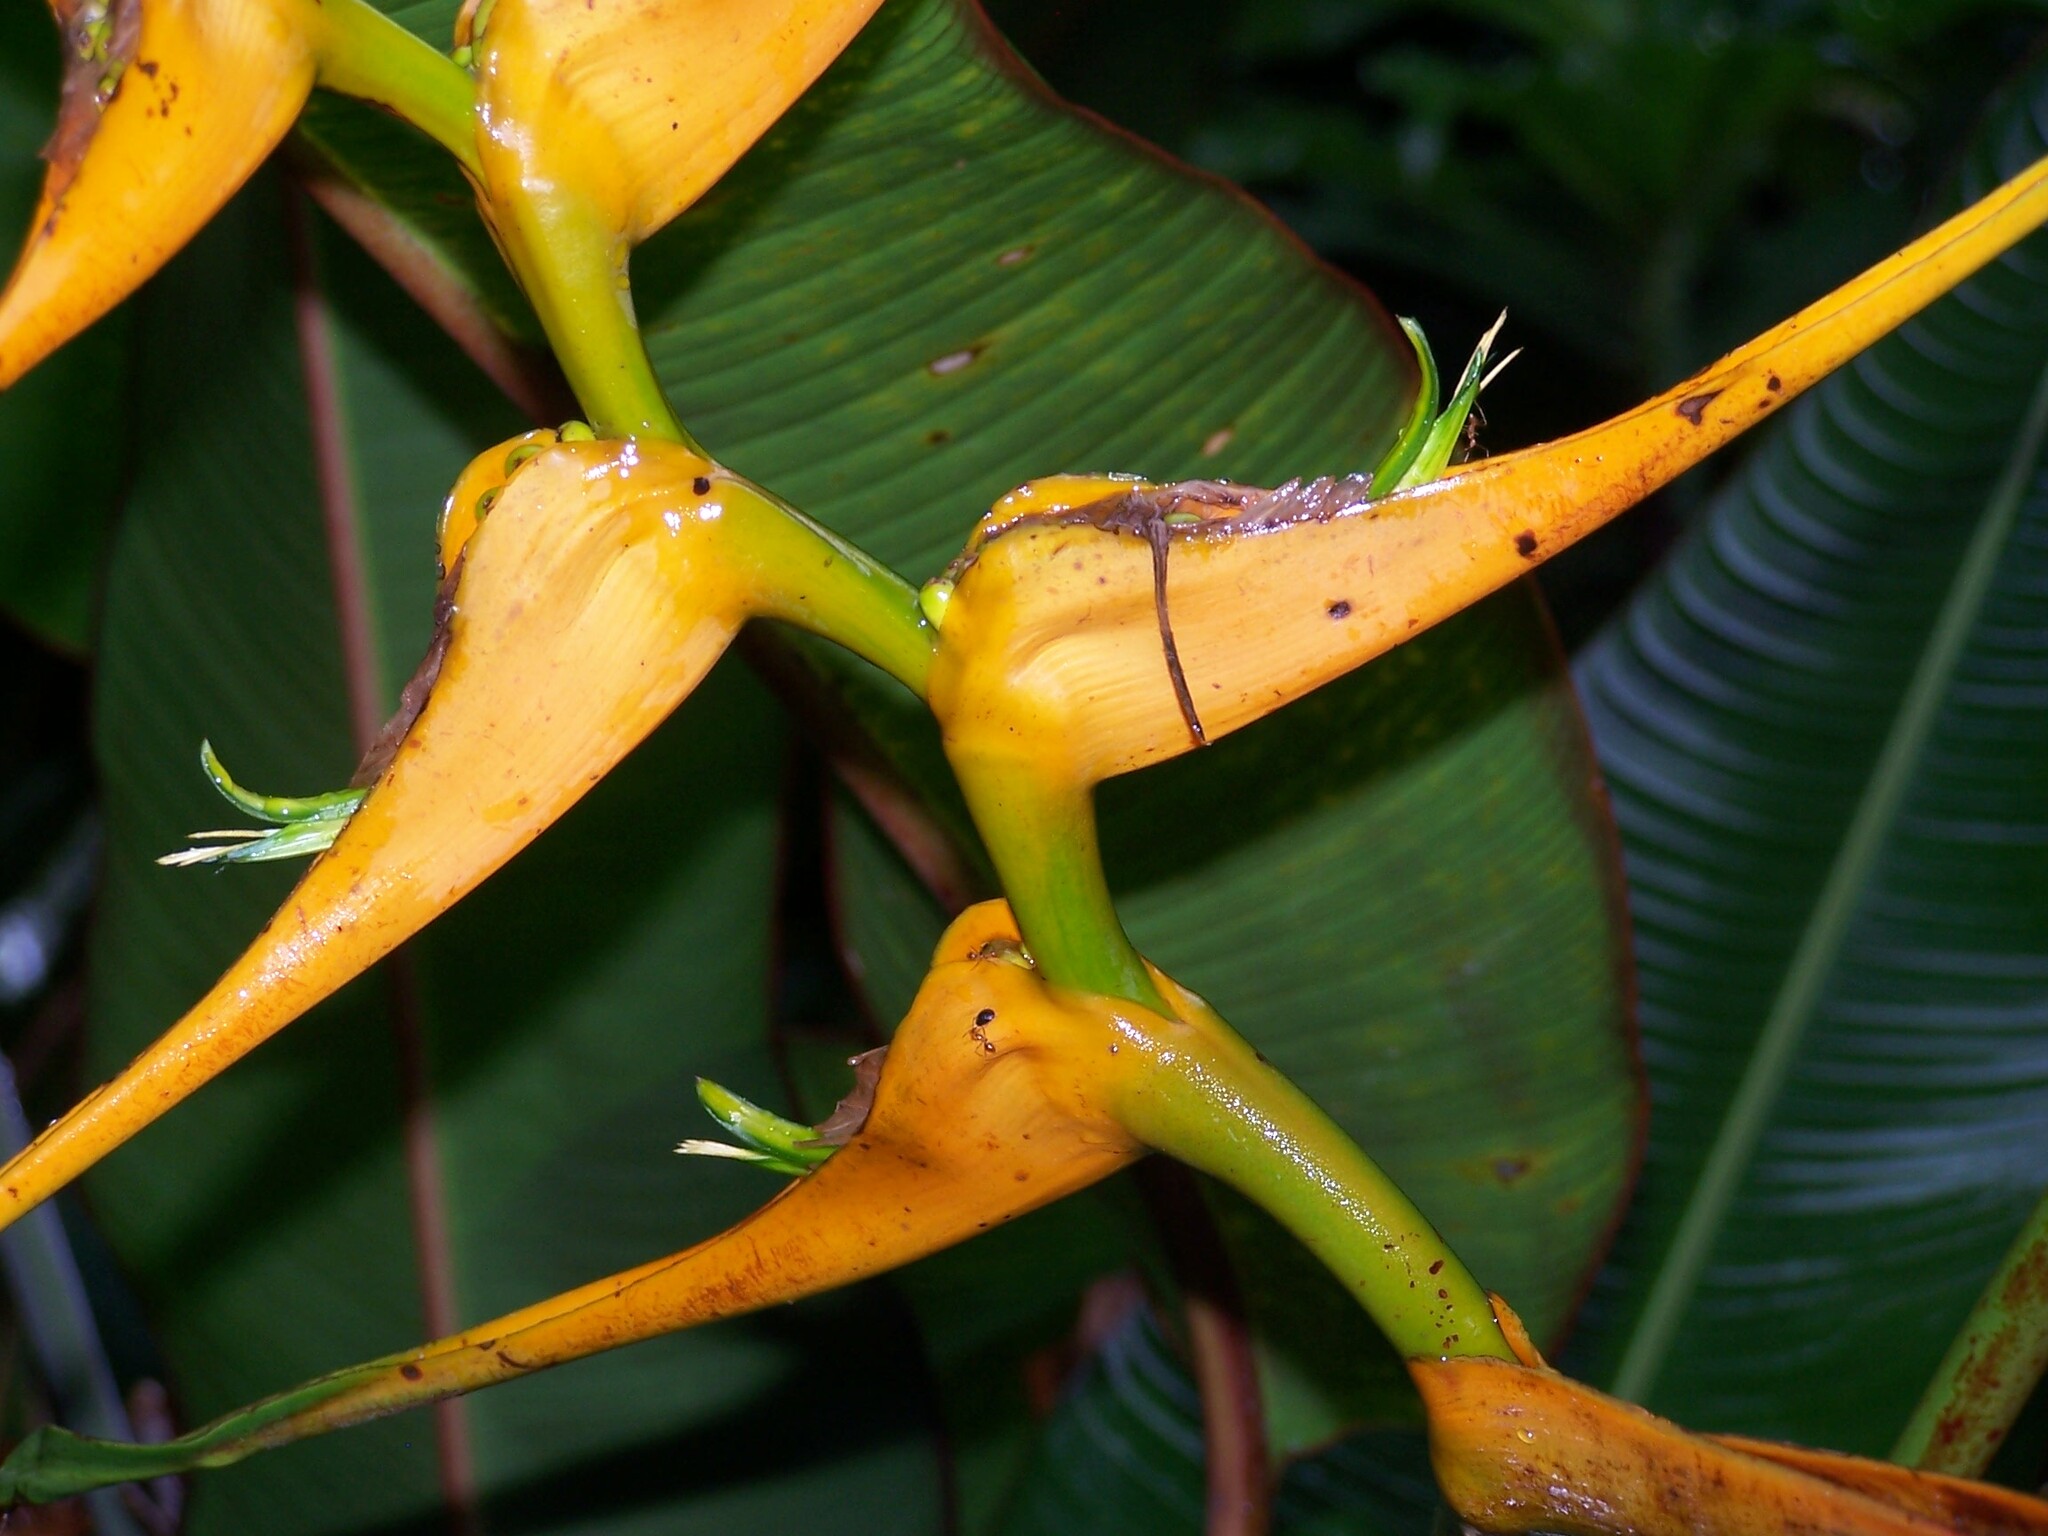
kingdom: Plantae
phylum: Tracheophyta
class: Liliopsida
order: Zingiberales
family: Heliconiaceae
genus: Heliconia
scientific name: Heliconia latispatha
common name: Expanded lobsterclaw
